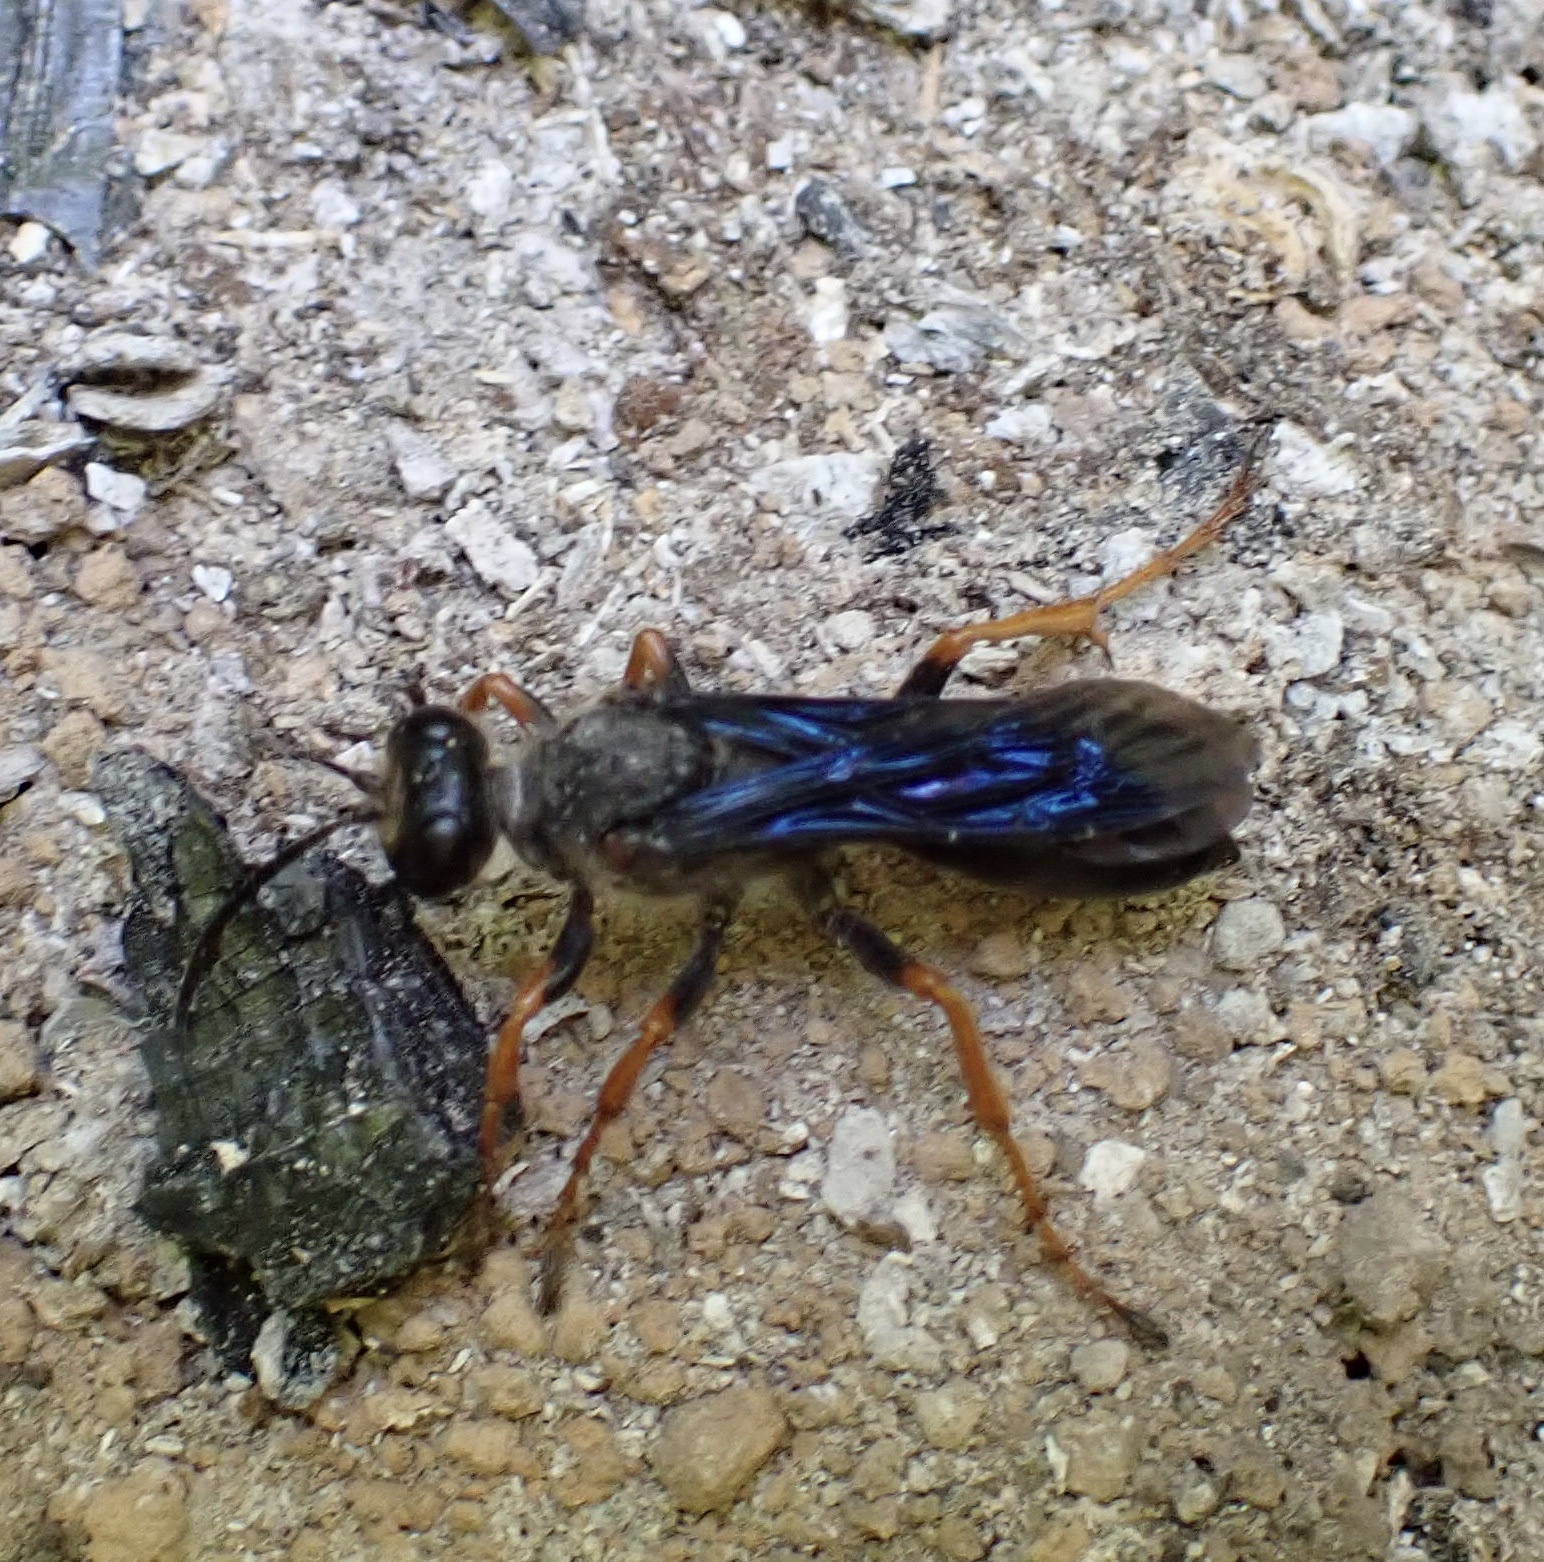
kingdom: Animalia
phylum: Arthropoda
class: Insecta
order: Hymenoptera
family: Sphecidae
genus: Sphex
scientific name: Sphex nudus
